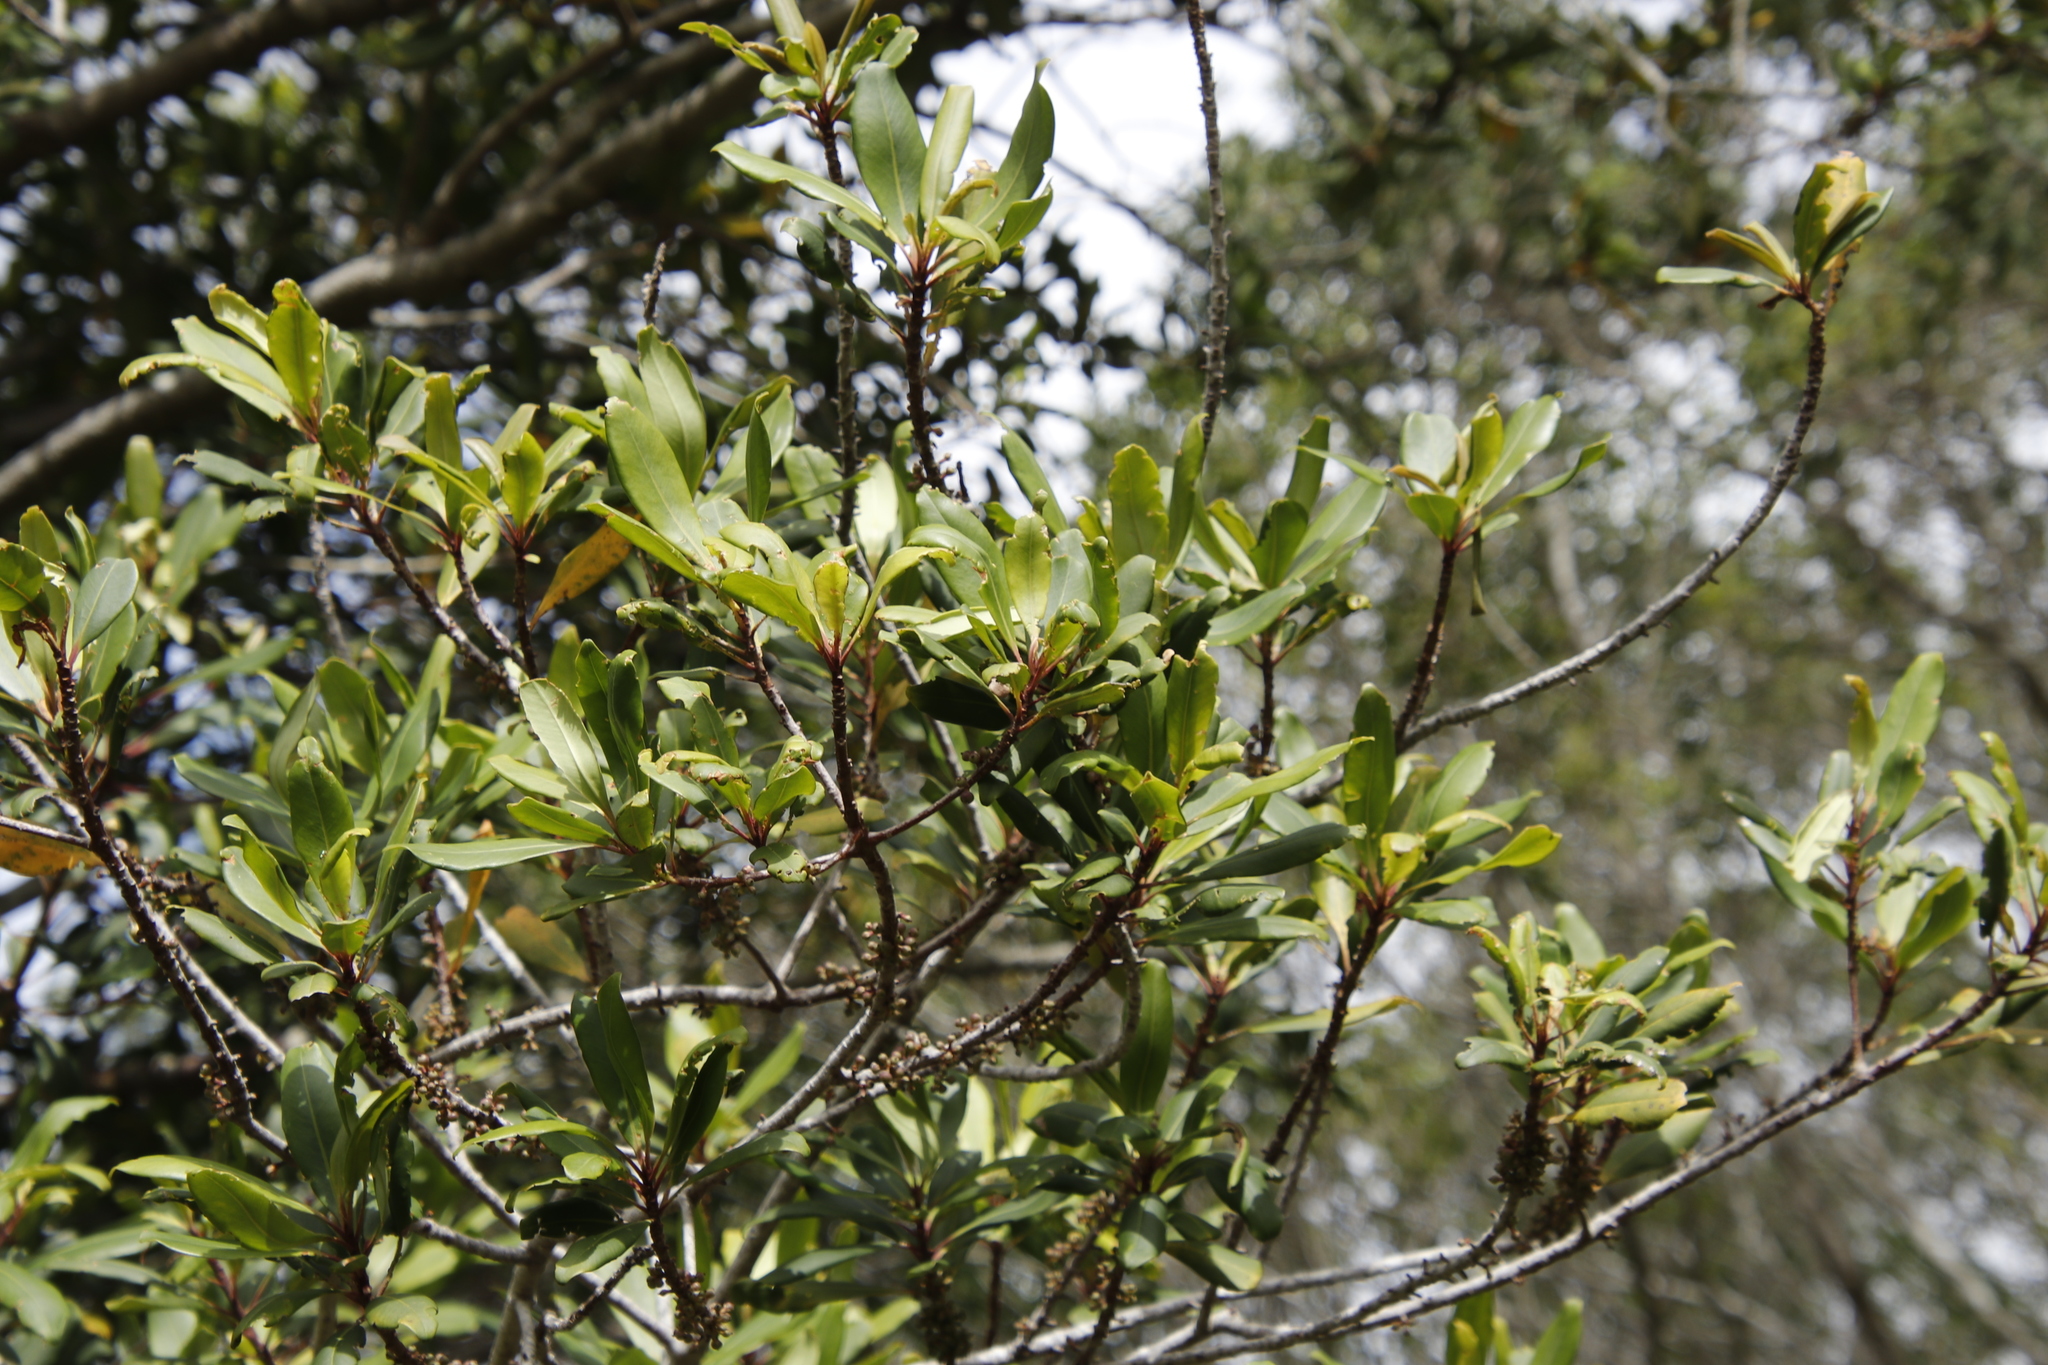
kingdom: Plantae
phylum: Tracheophyta
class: Magnoliopsida
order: Ericales
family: Primulaceae
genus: Myrsine
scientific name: Myrsine melanophloeos
